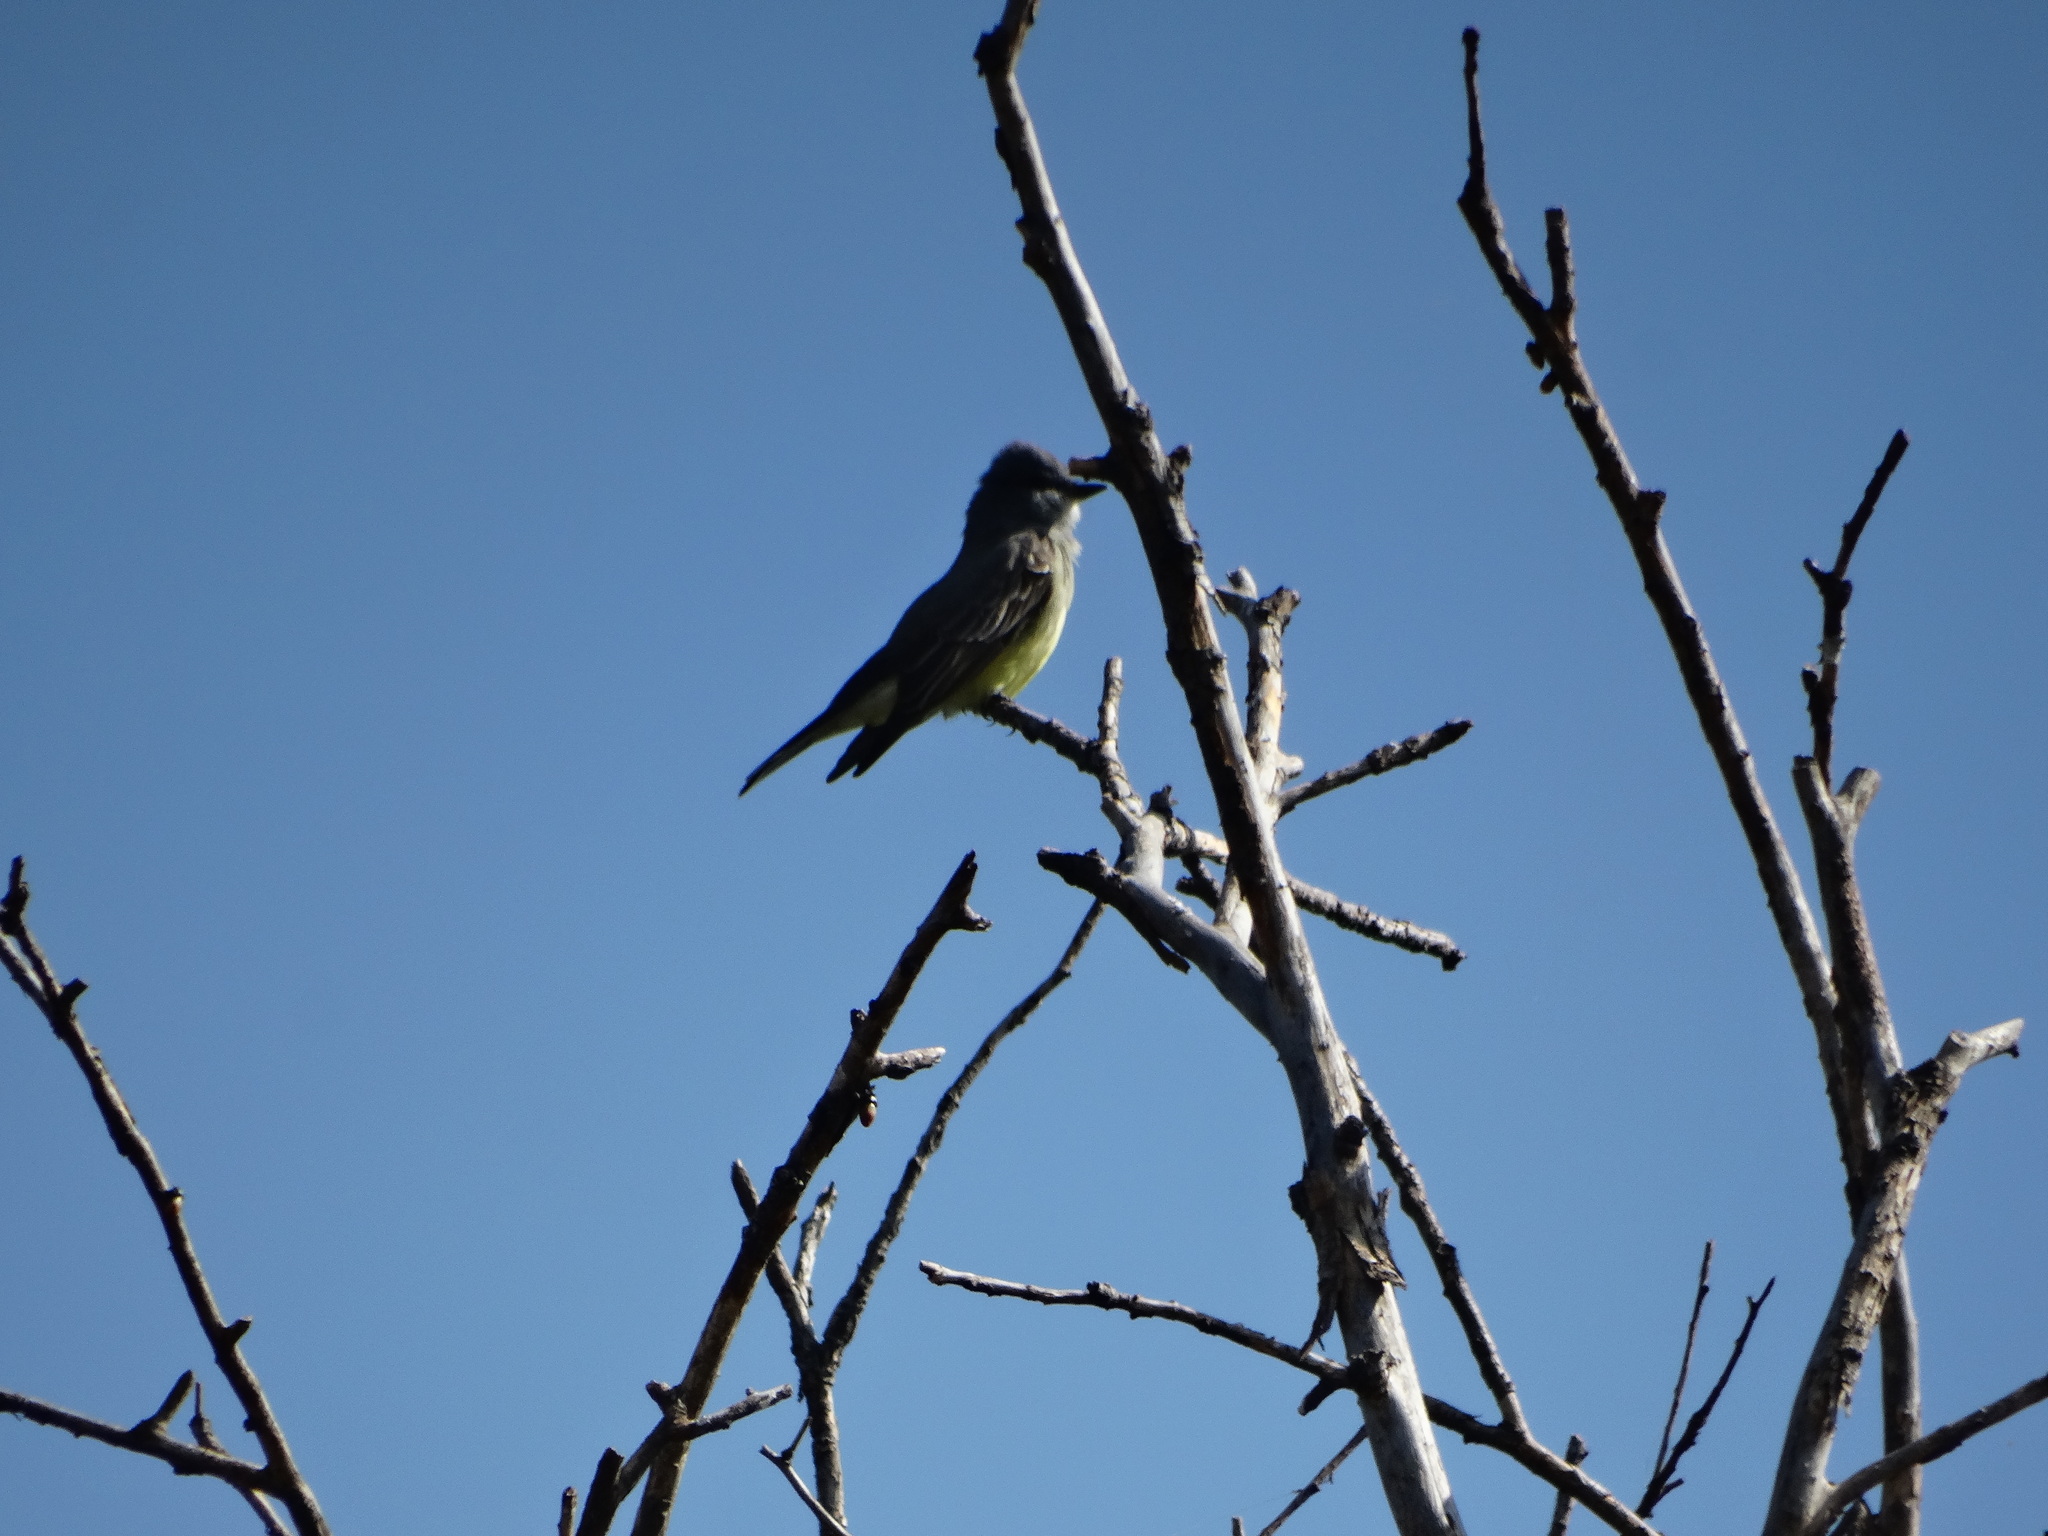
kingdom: Animalia
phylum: Chordata
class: Aves
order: Passeriformes
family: Tyrannidae
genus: Tyrannus
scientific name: Tyrannus vociferans
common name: Cassin's kingbird
